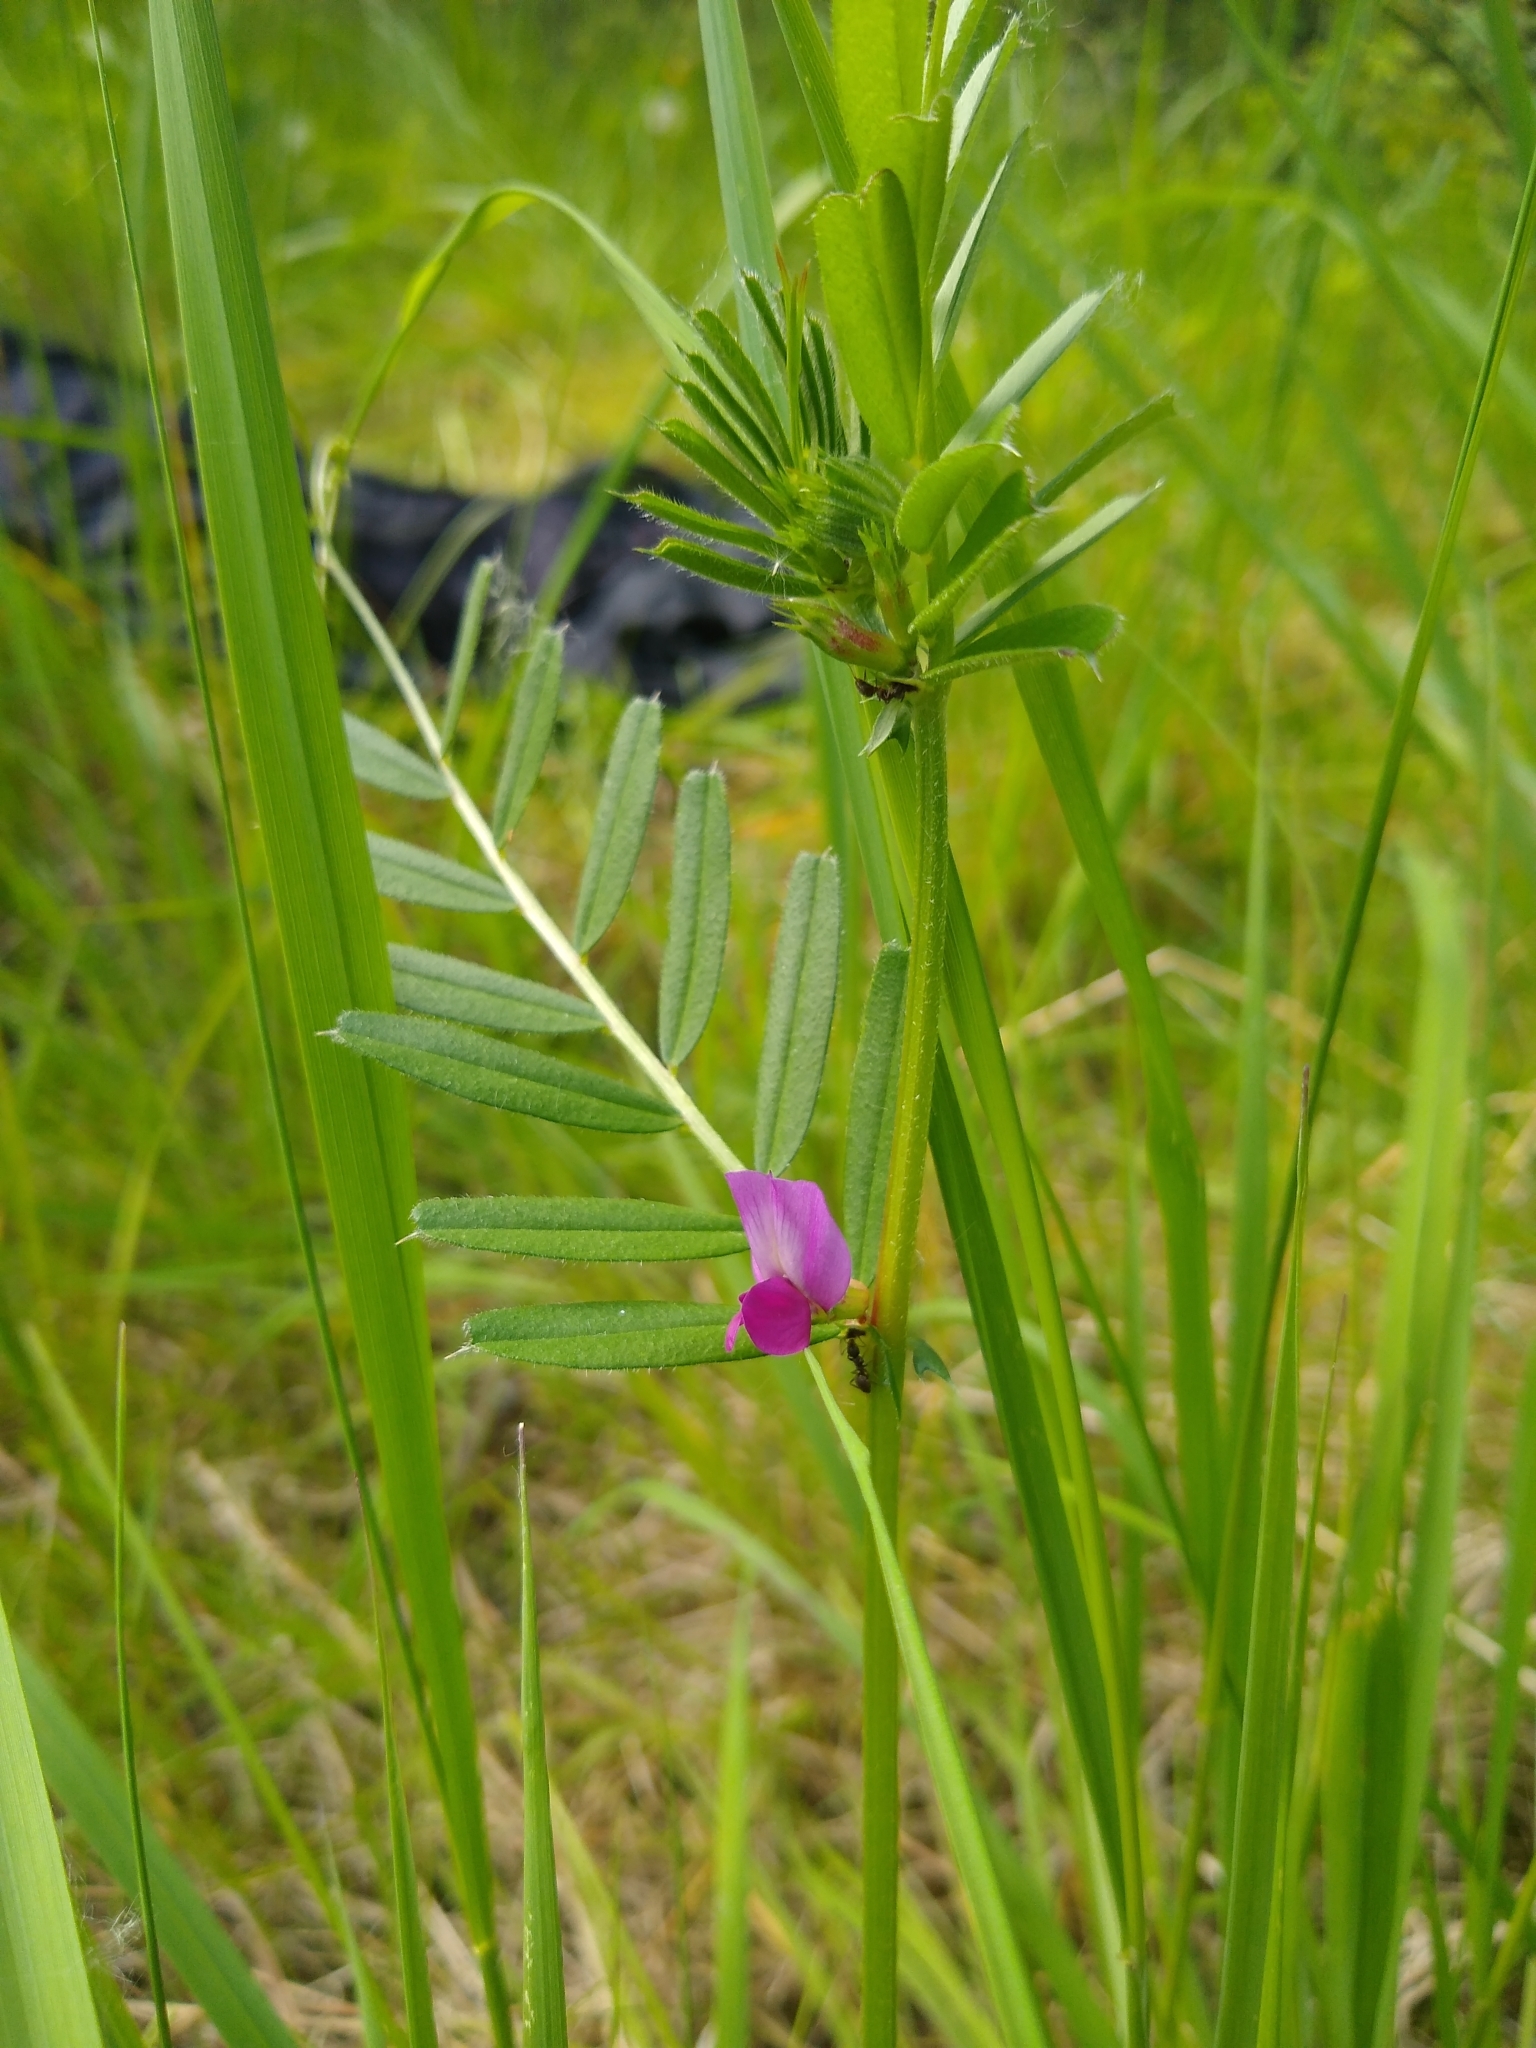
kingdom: Plantae
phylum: Tracheophyta
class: Magnoliopsida
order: Fabales
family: Fabaceae
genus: Vicia
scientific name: Vicia sativa
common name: Garden vetch
